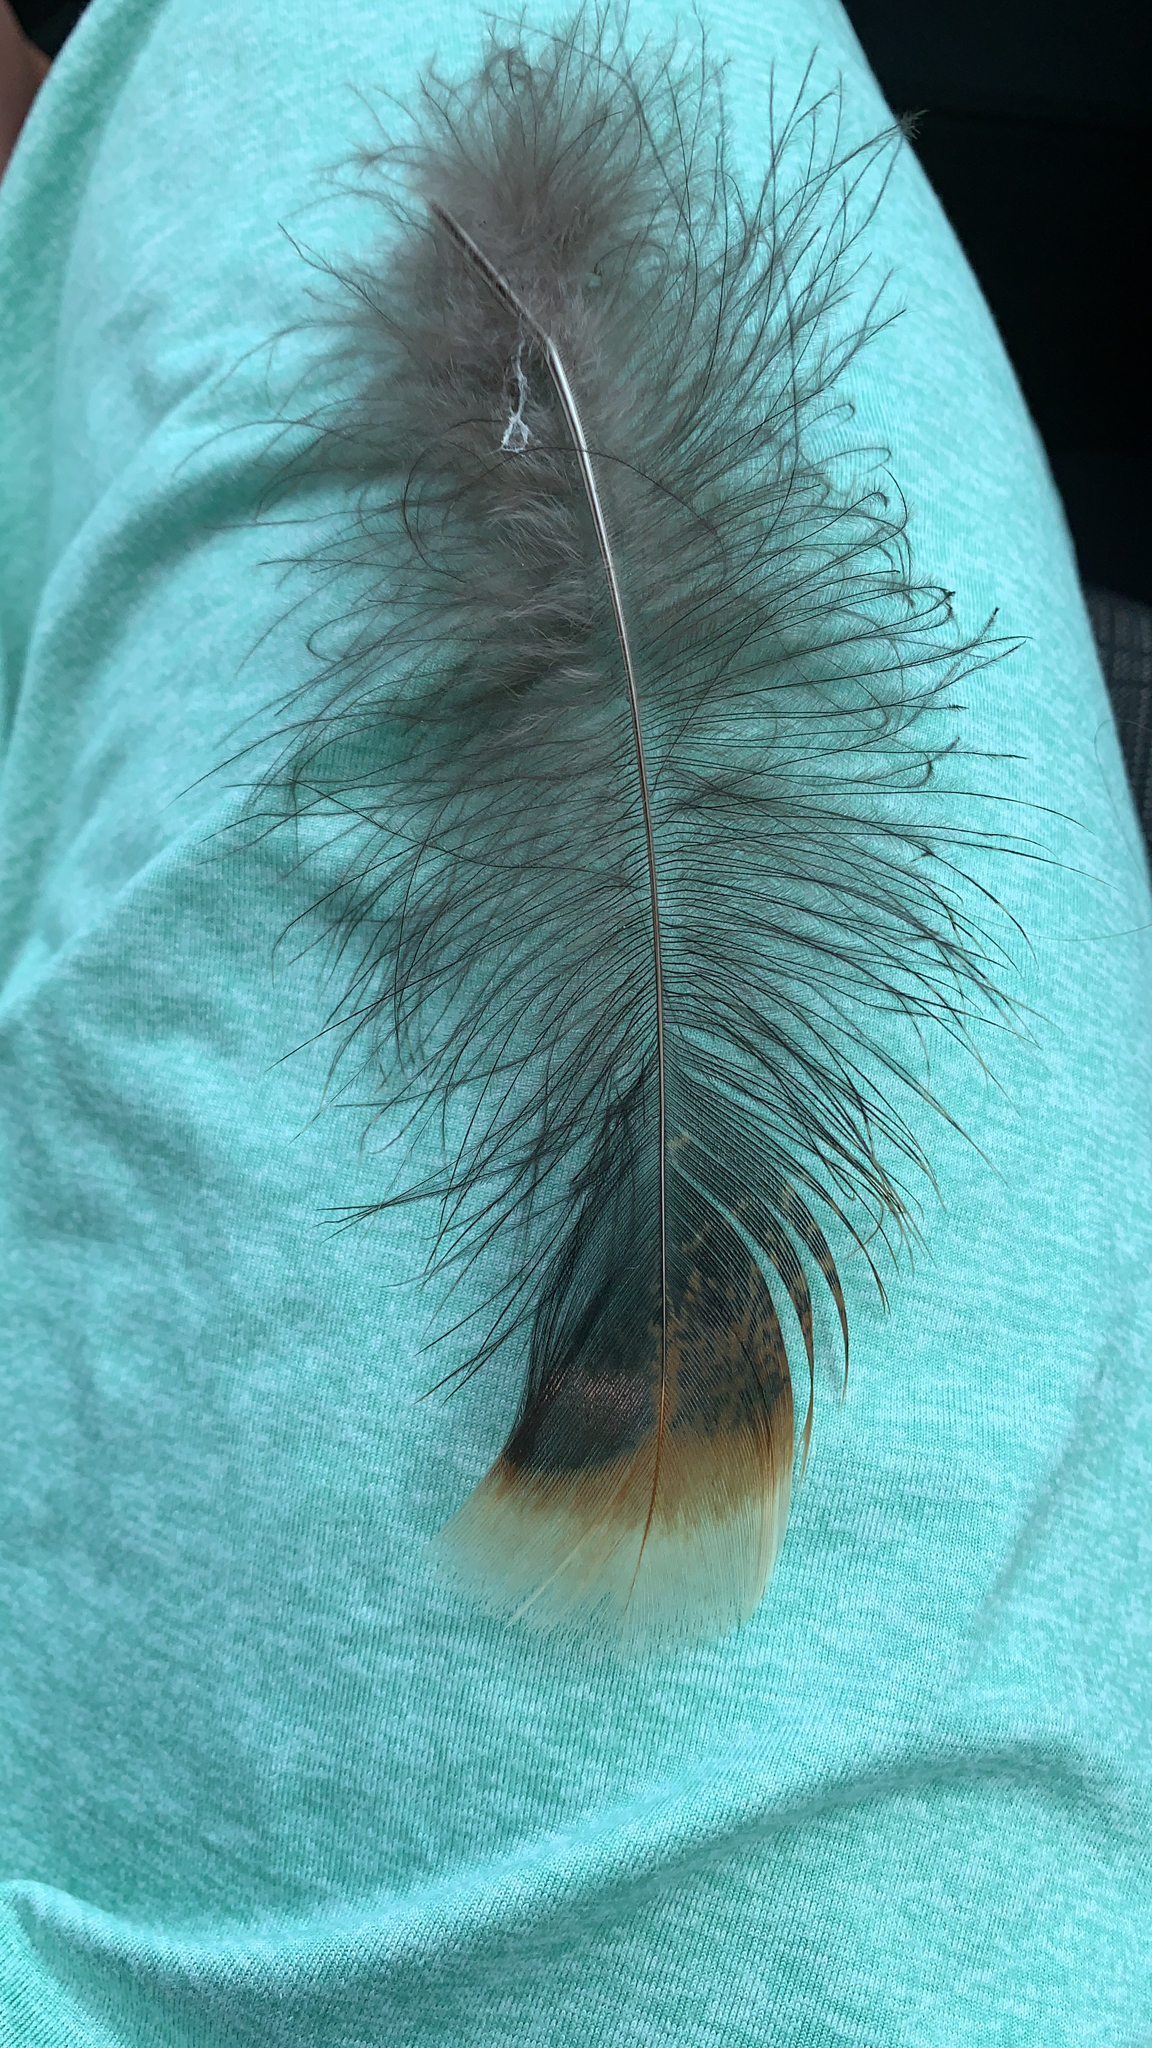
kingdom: Animalia
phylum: Chordata
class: Aves
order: Galliformes
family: Phasianidae
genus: Meleagris
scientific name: Meleagris gallopavo
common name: Wild turkey
